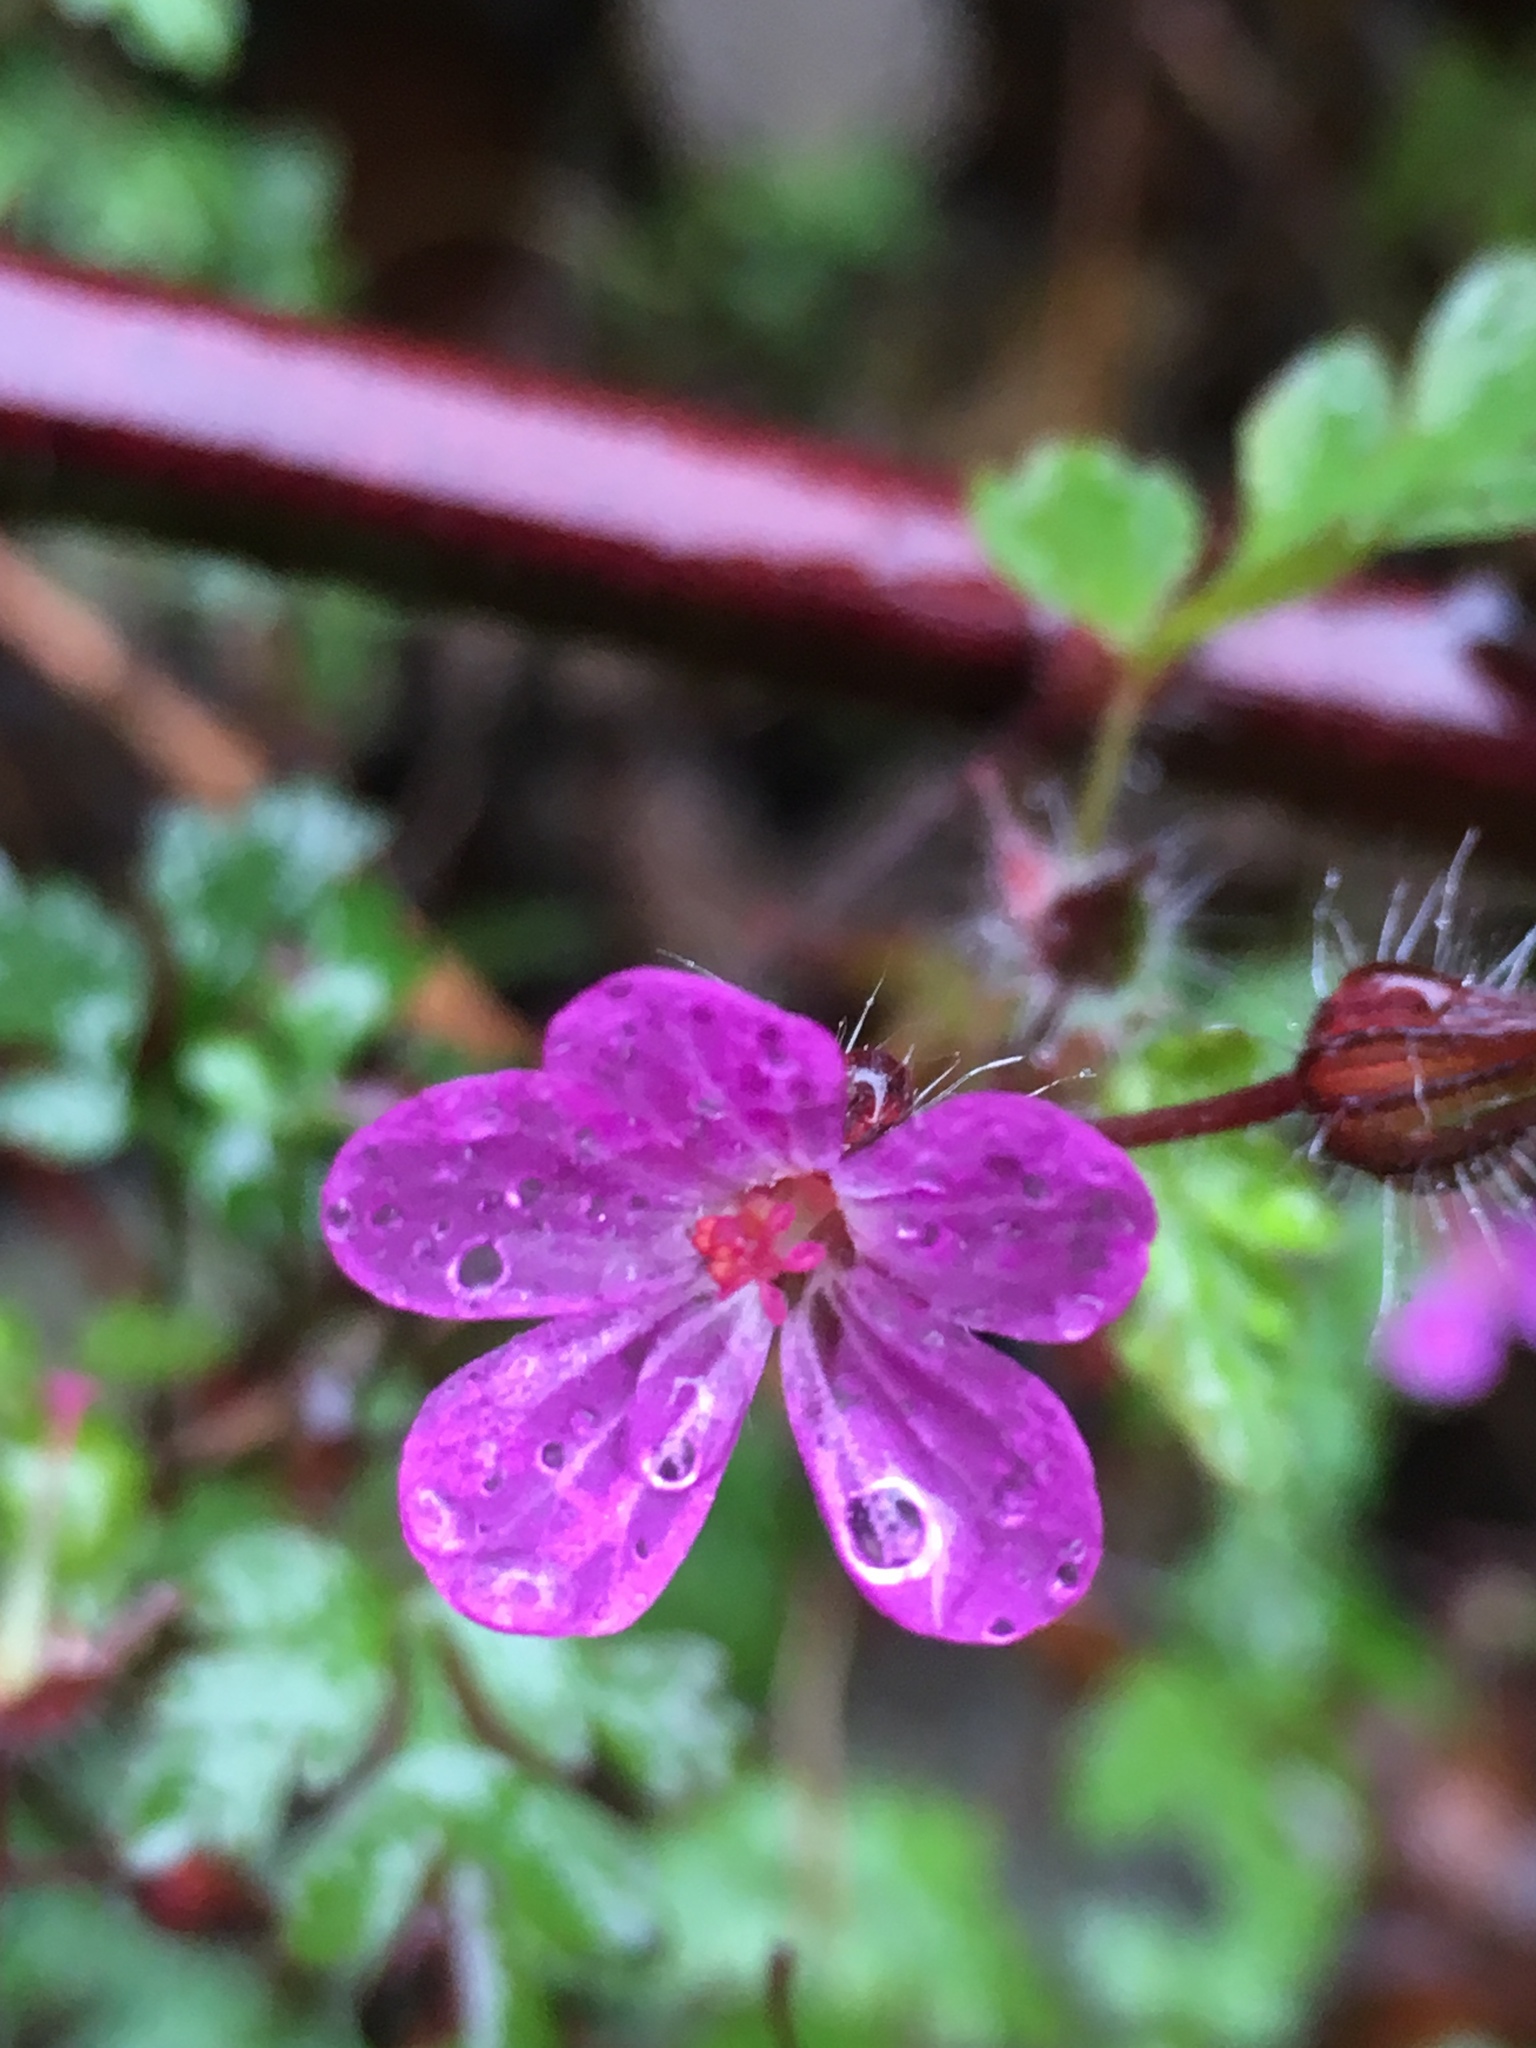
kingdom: Plantae
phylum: Tracheophyta
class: Magnoliopsida
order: Geraniales
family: Geraniaceae
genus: Geranium
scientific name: Geranium robertianum
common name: Herb-robert
